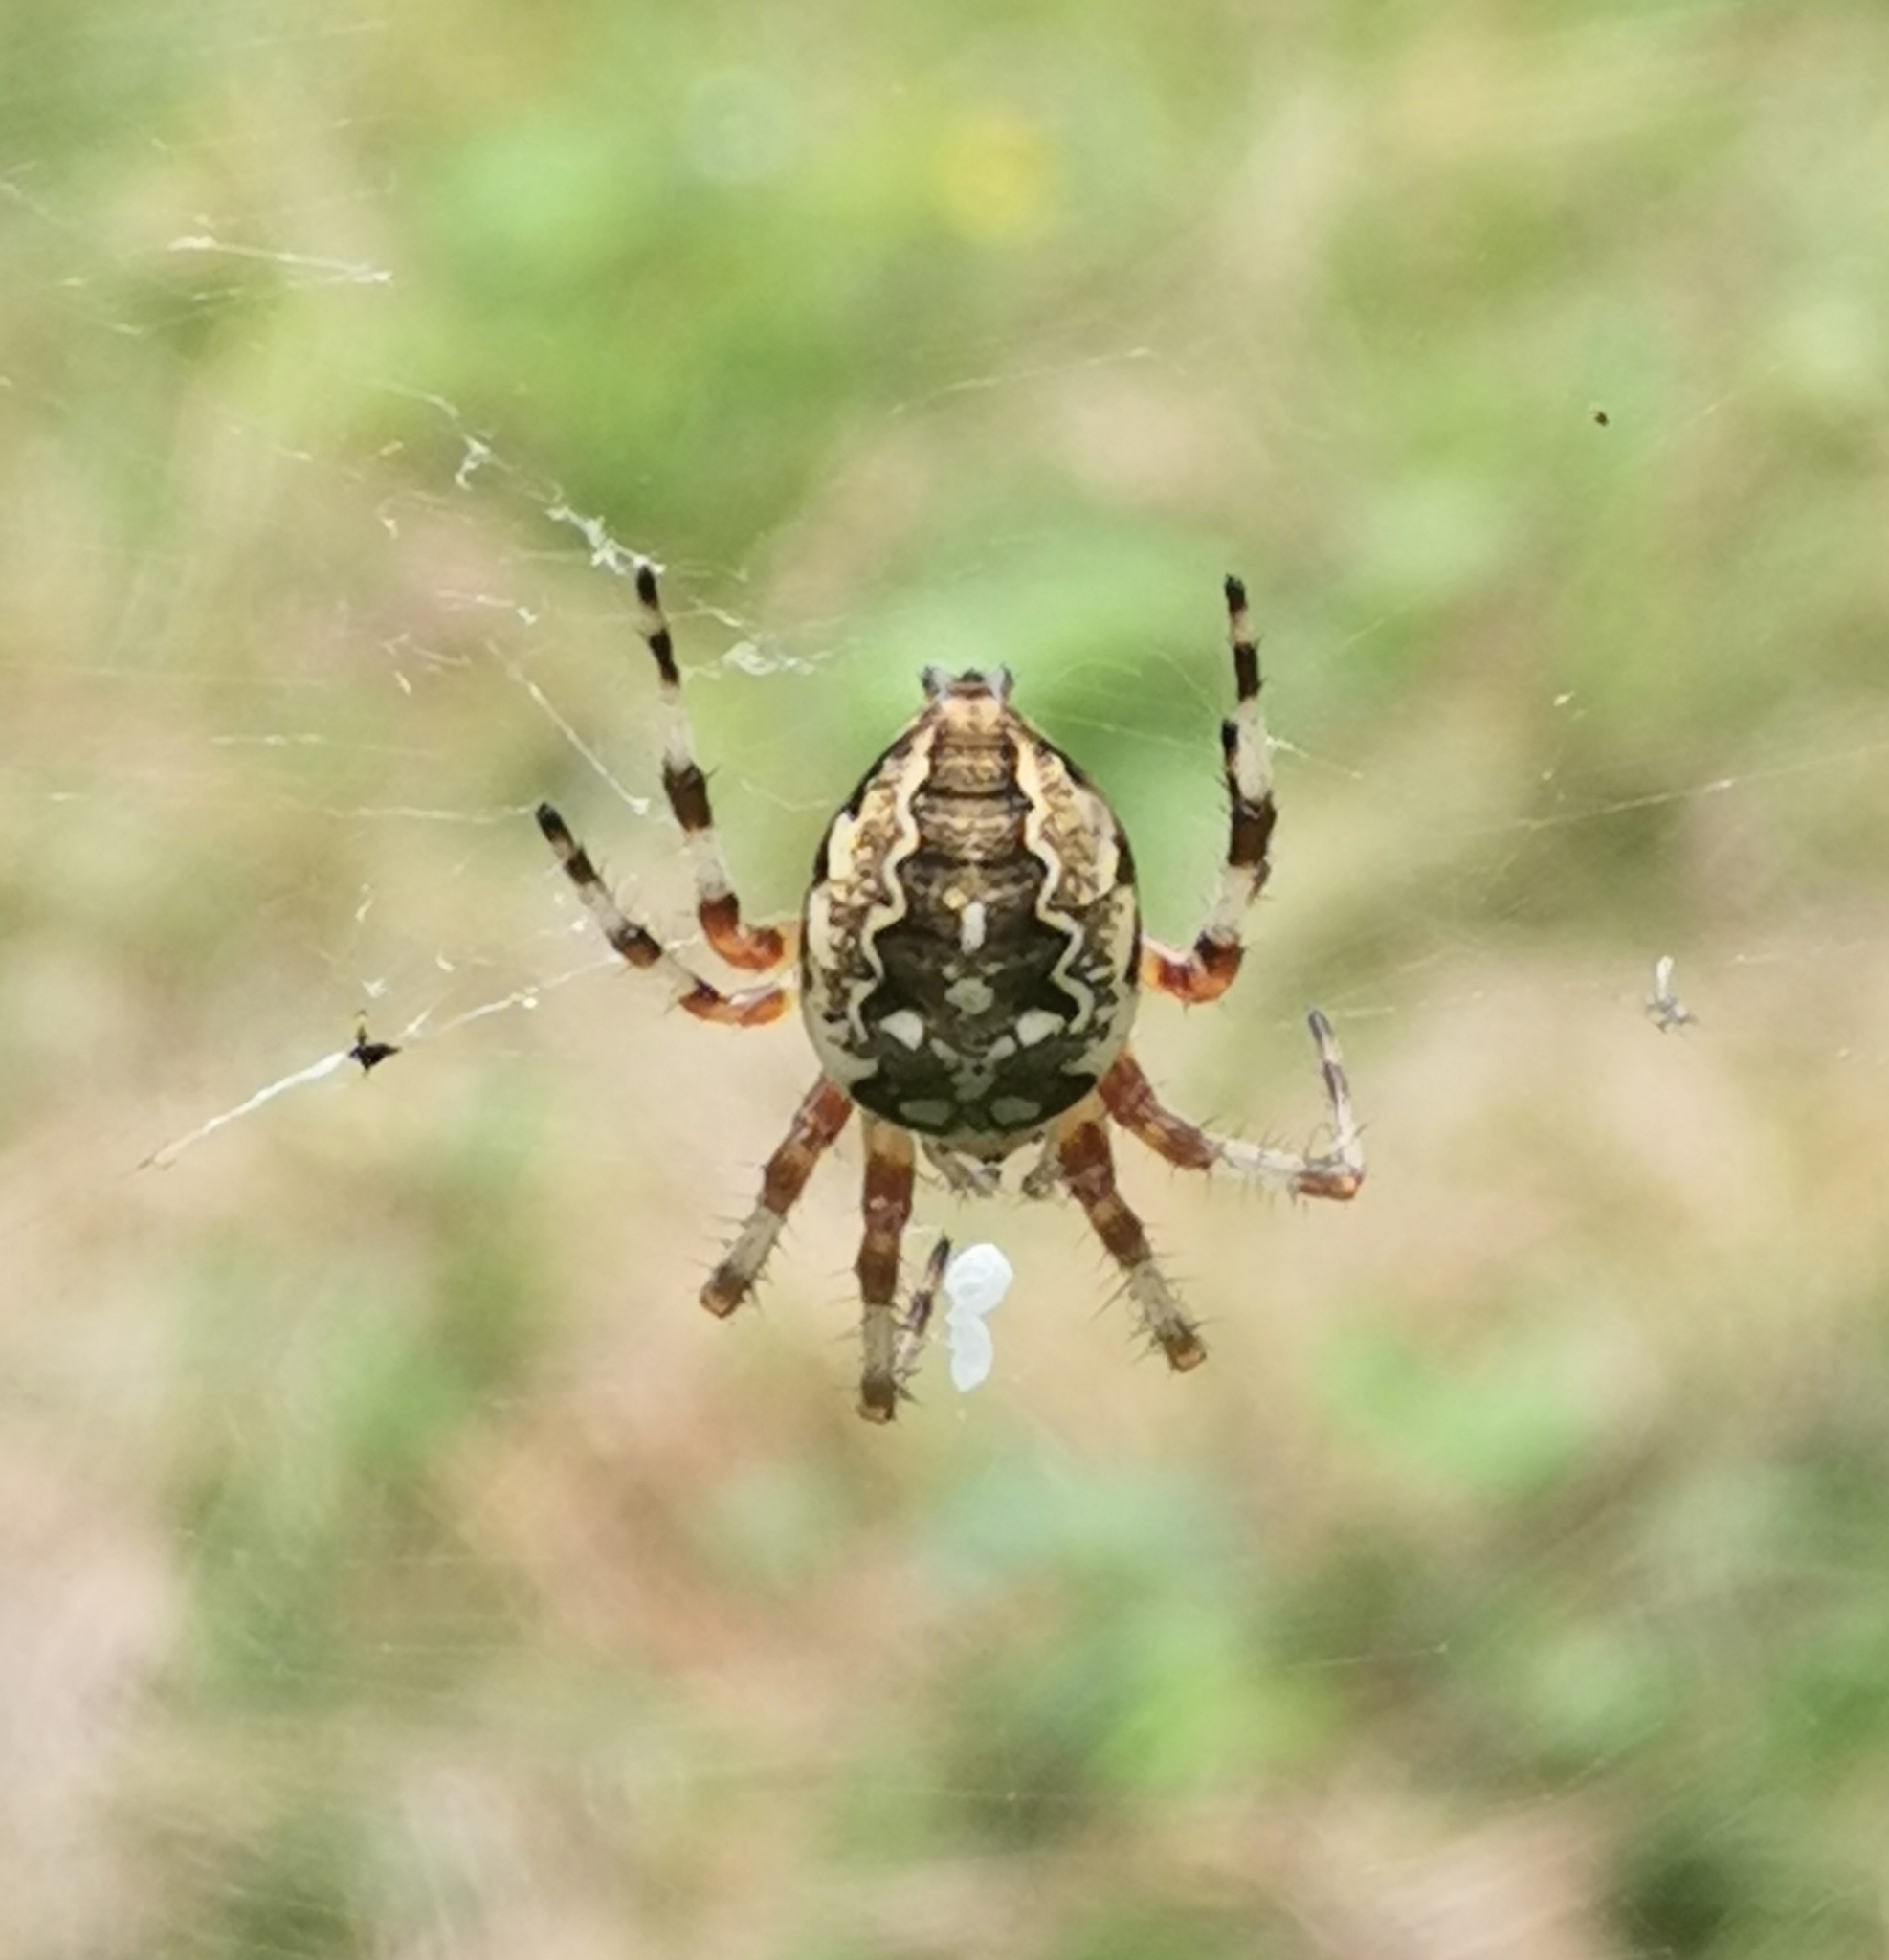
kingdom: Animalia
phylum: Arthropoda
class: Arachnida
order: Araneae
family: Araneidae
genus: Araneus
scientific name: Araneus marmoreus
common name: Marbled orbweaver
